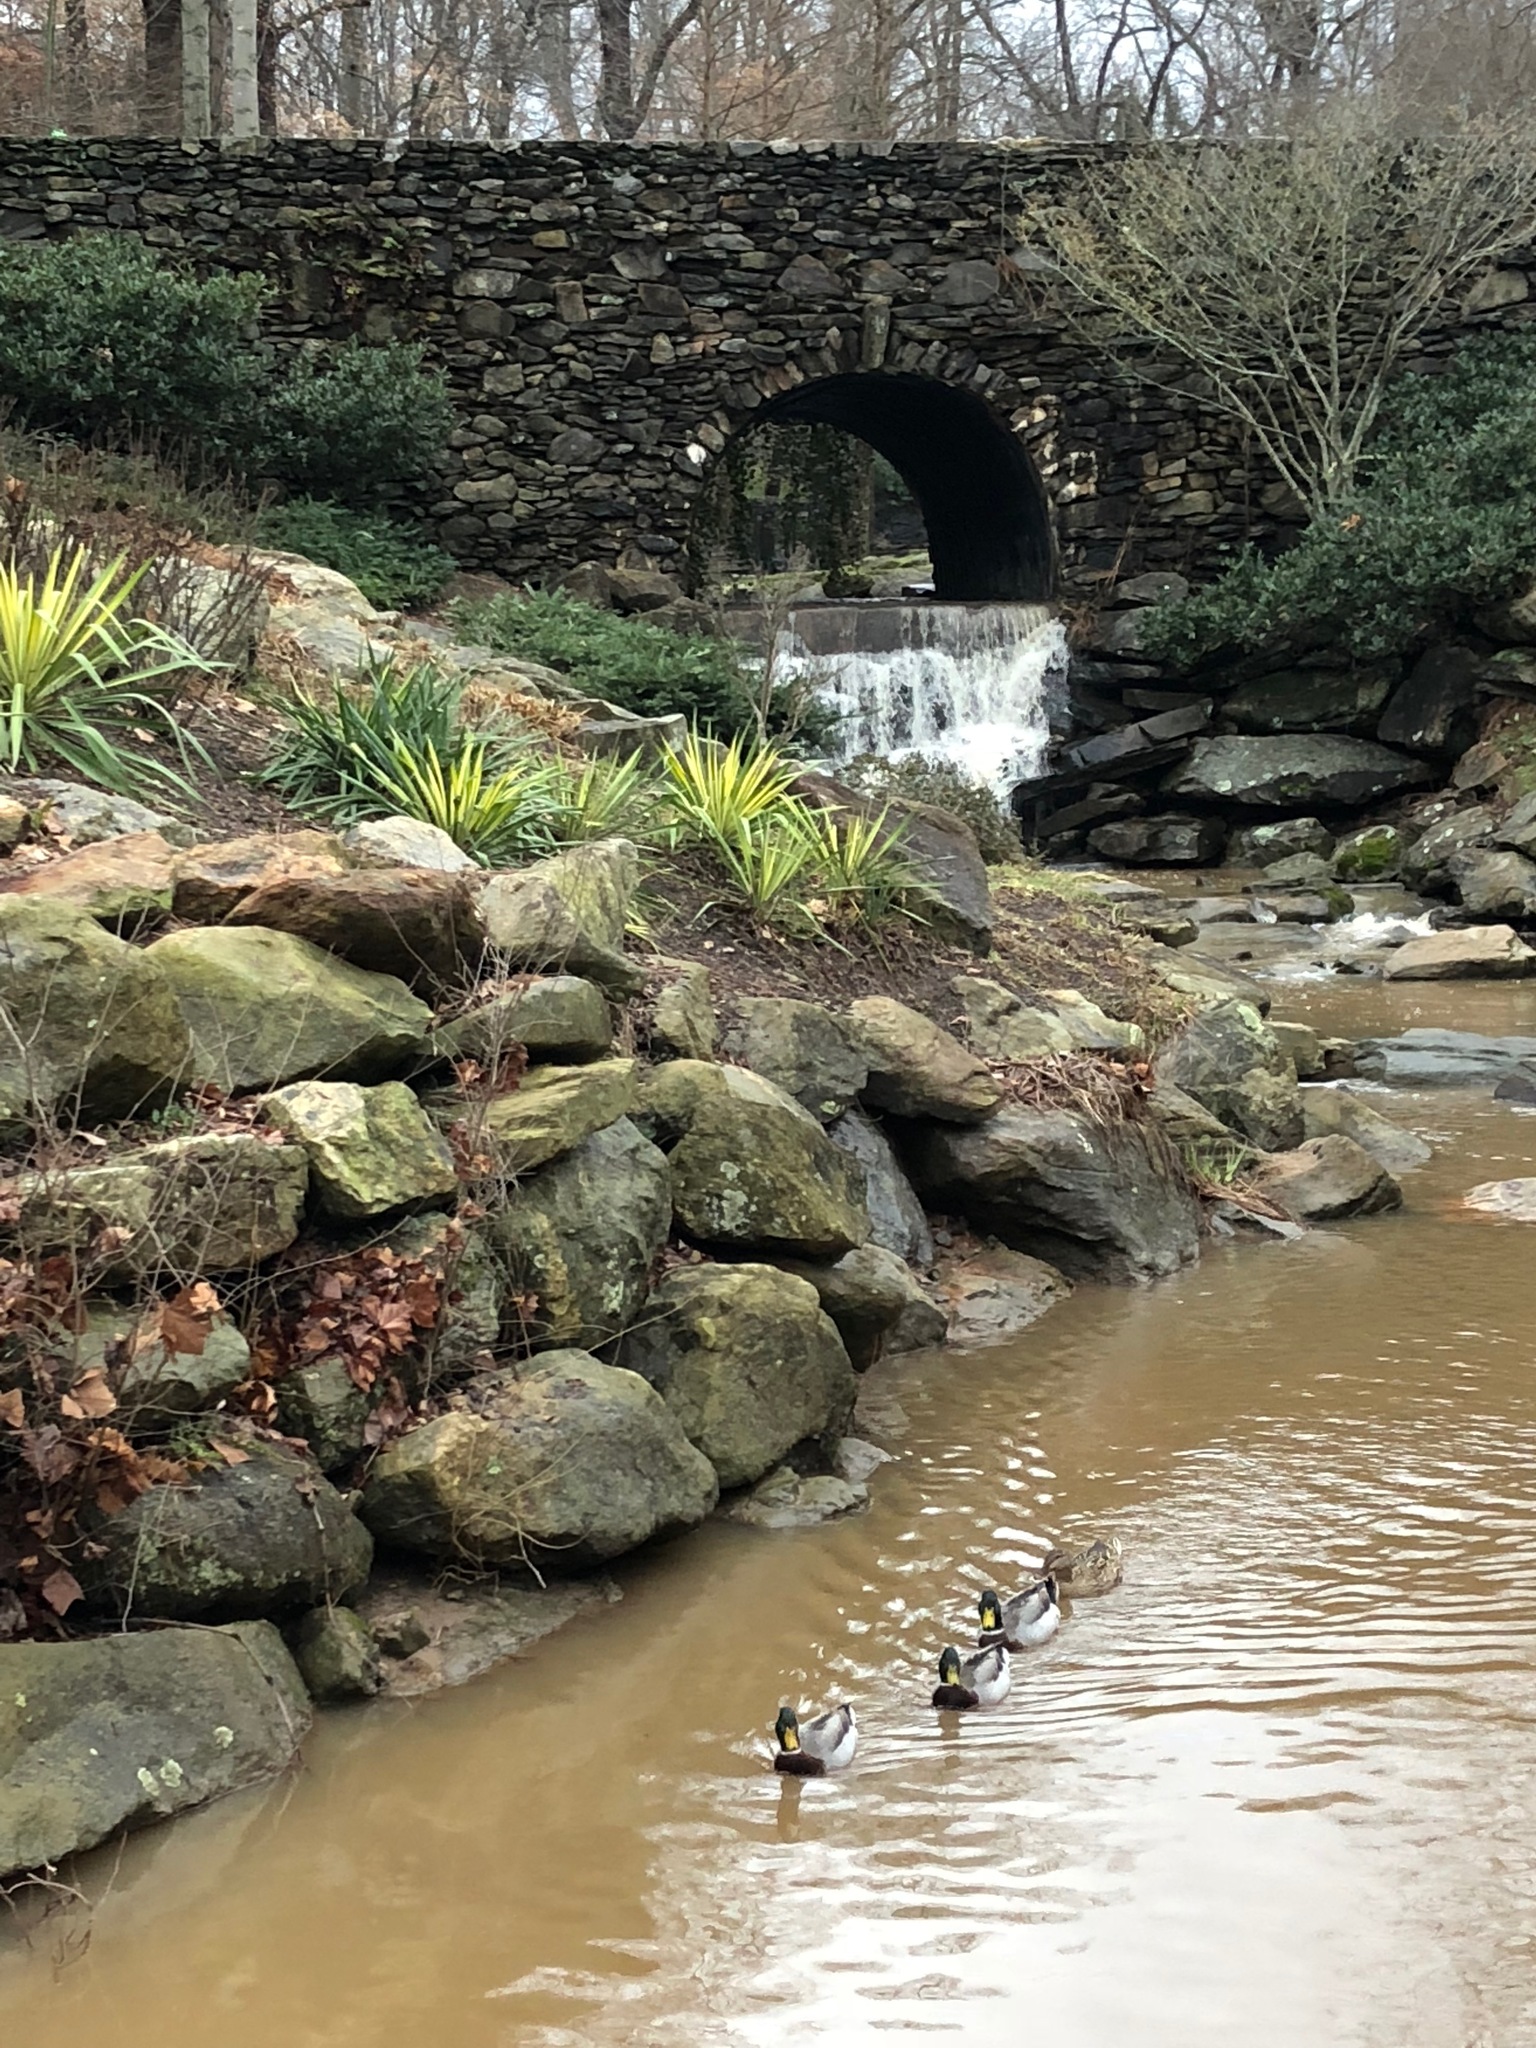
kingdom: Animalia
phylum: Chordata
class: Aves
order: Anseriformes
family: Anatidae
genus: Anas
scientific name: Anas platyrhynchos
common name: Mallard
